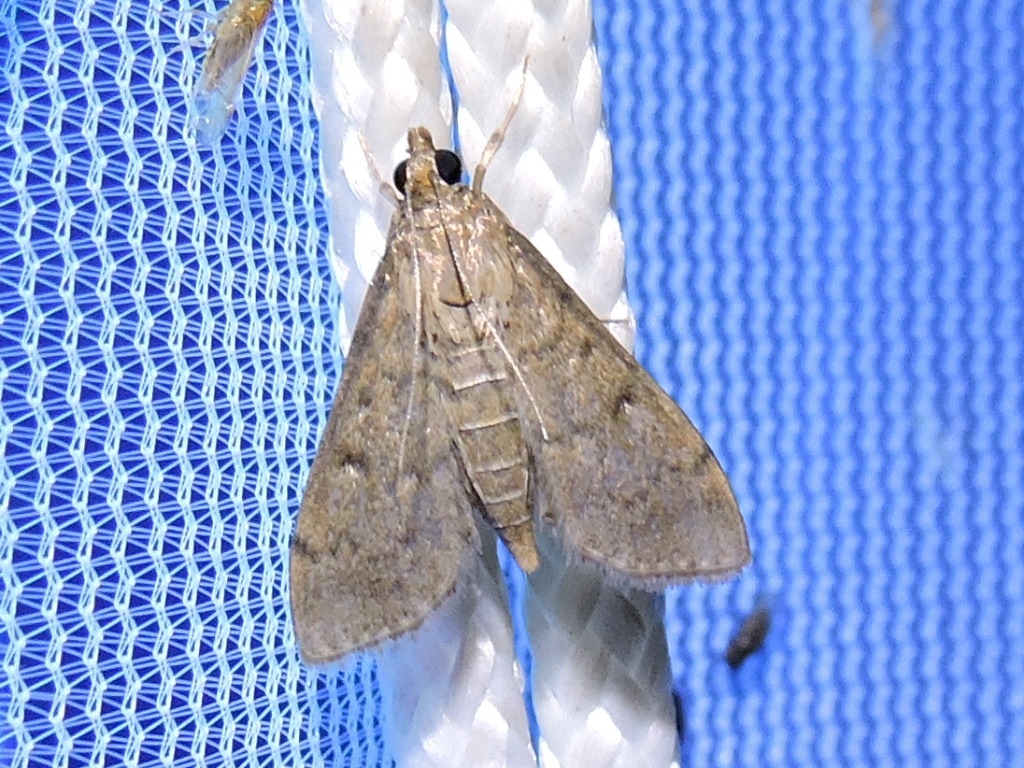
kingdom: Animalia
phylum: Arthropoda
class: Insecta
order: Lepidoptera
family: Crambidae
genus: Herpetogramma
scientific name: Herpetogramma phaeopteralis
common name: Dusky herpetogramma moth
